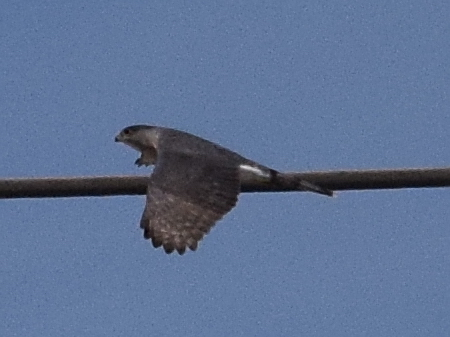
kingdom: Animalia
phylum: Chordata
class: Aves
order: Accipitriformes
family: Accipitridae
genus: Accipiter
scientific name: Accipiter cooperii
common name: Cooper's hawk
